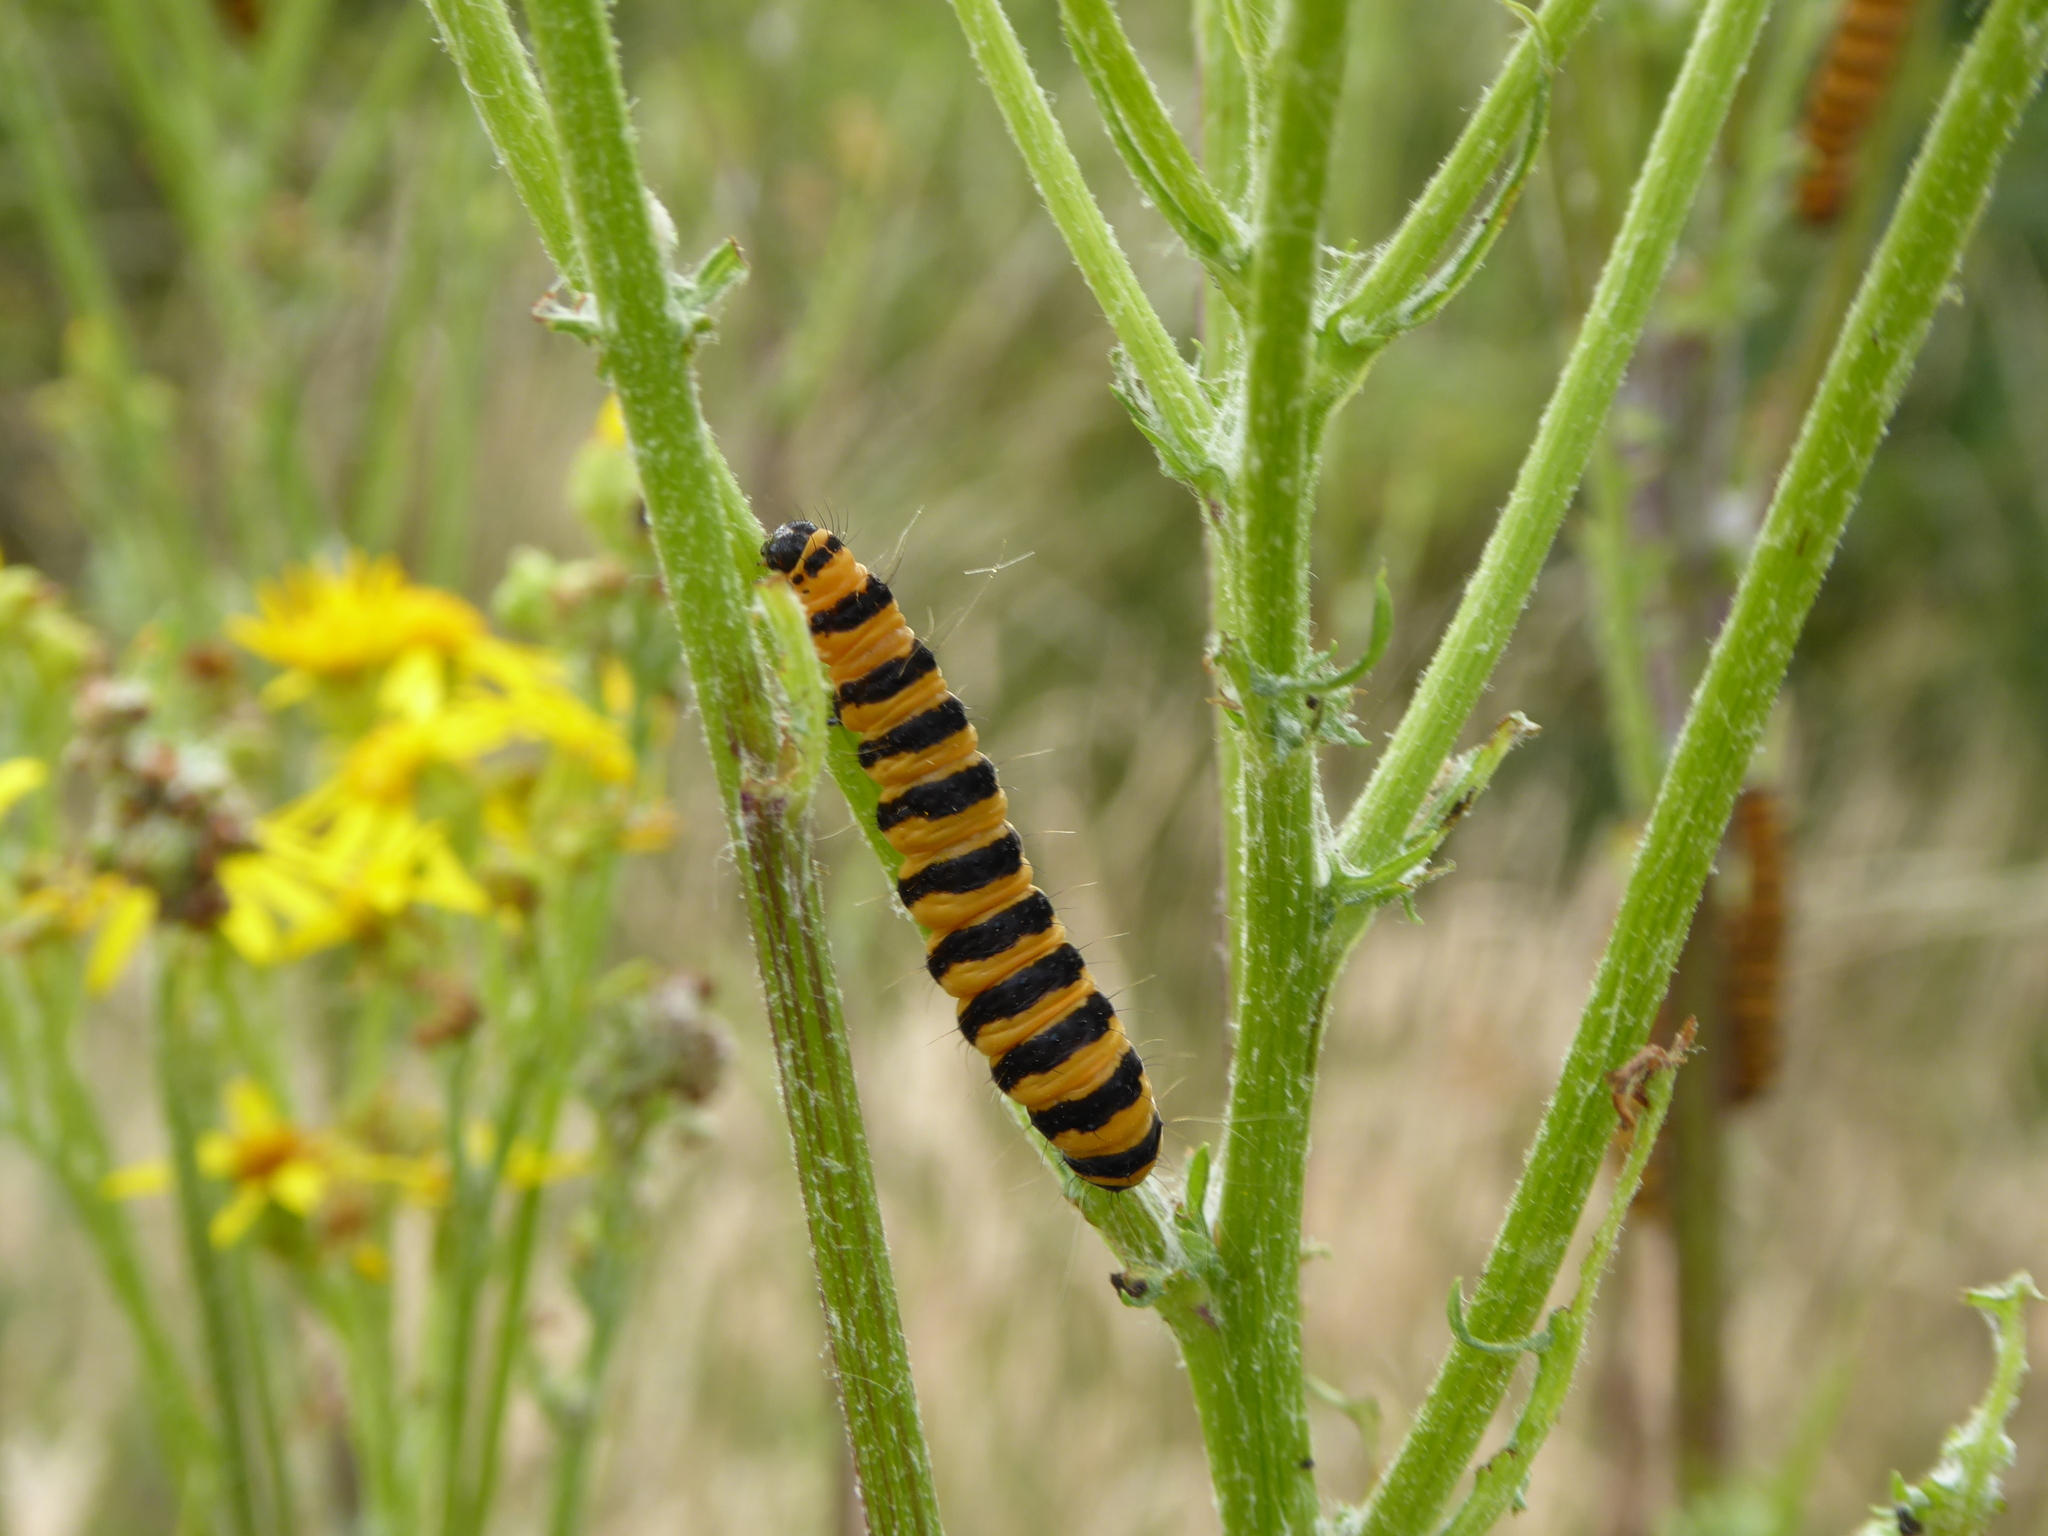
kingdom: Animalia
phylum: Arthropoda
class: Insecta
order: Lepidoptera
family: Erebidae
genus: Tyria
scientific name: Tyria jacobaeae
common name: Cinnabar
